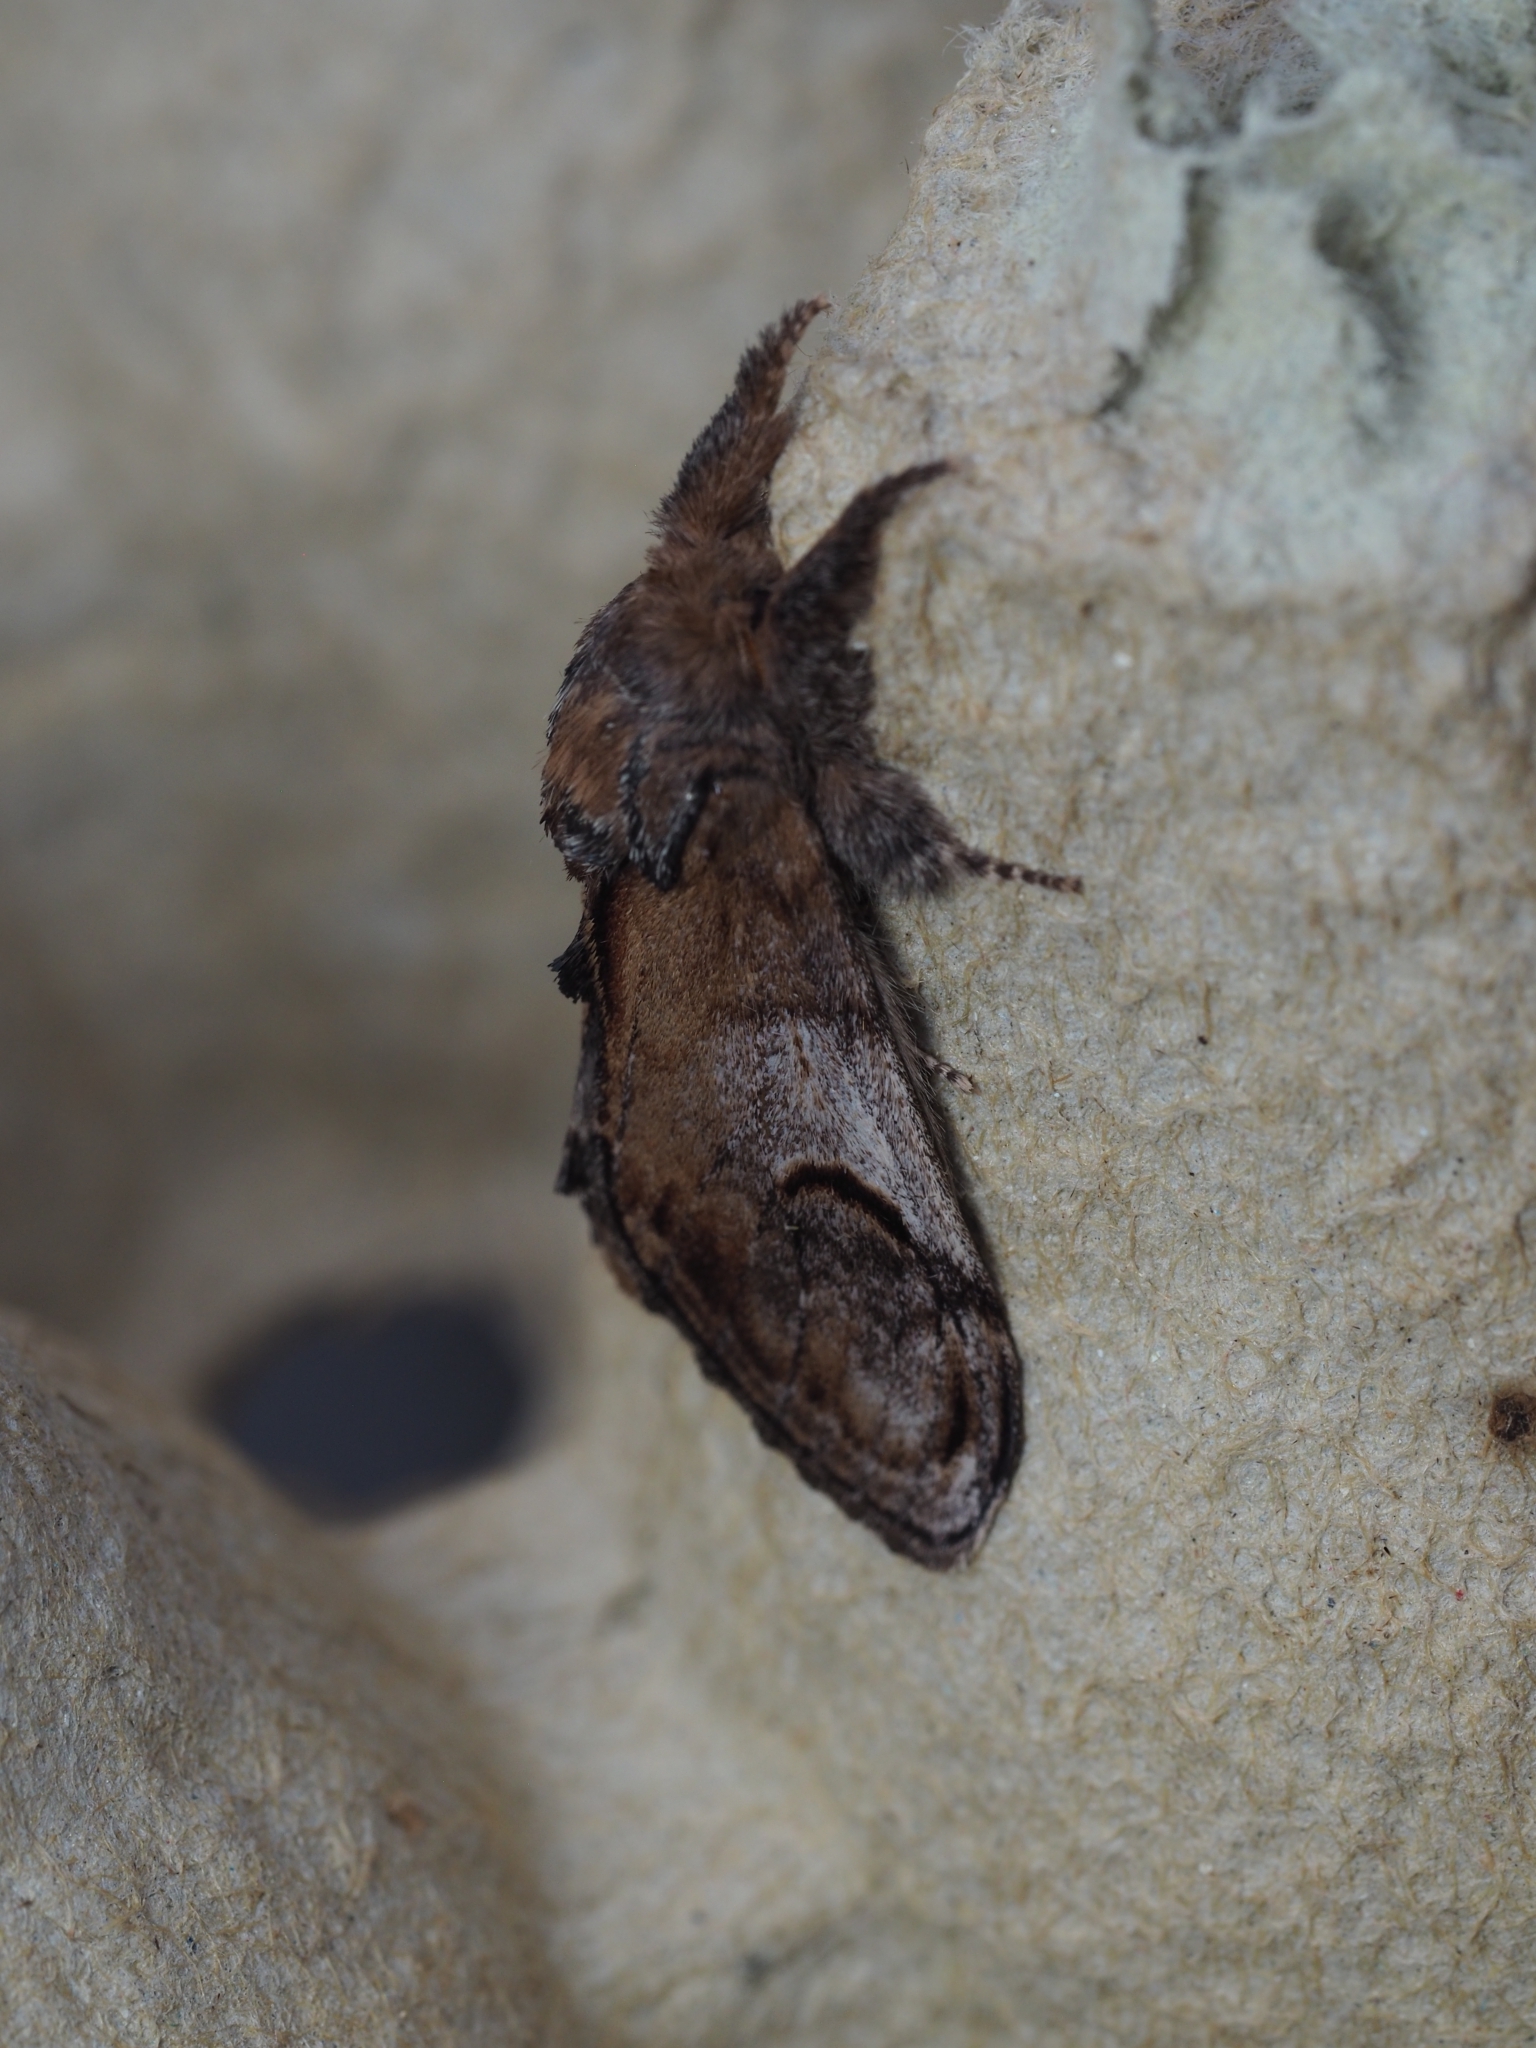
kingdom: Animalia
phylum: Arthropoda
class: Insecta
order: Lepidoptera
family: Notodontidae
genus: Notodonta
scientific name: Notodonta ziczac
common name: Pebble prominent
